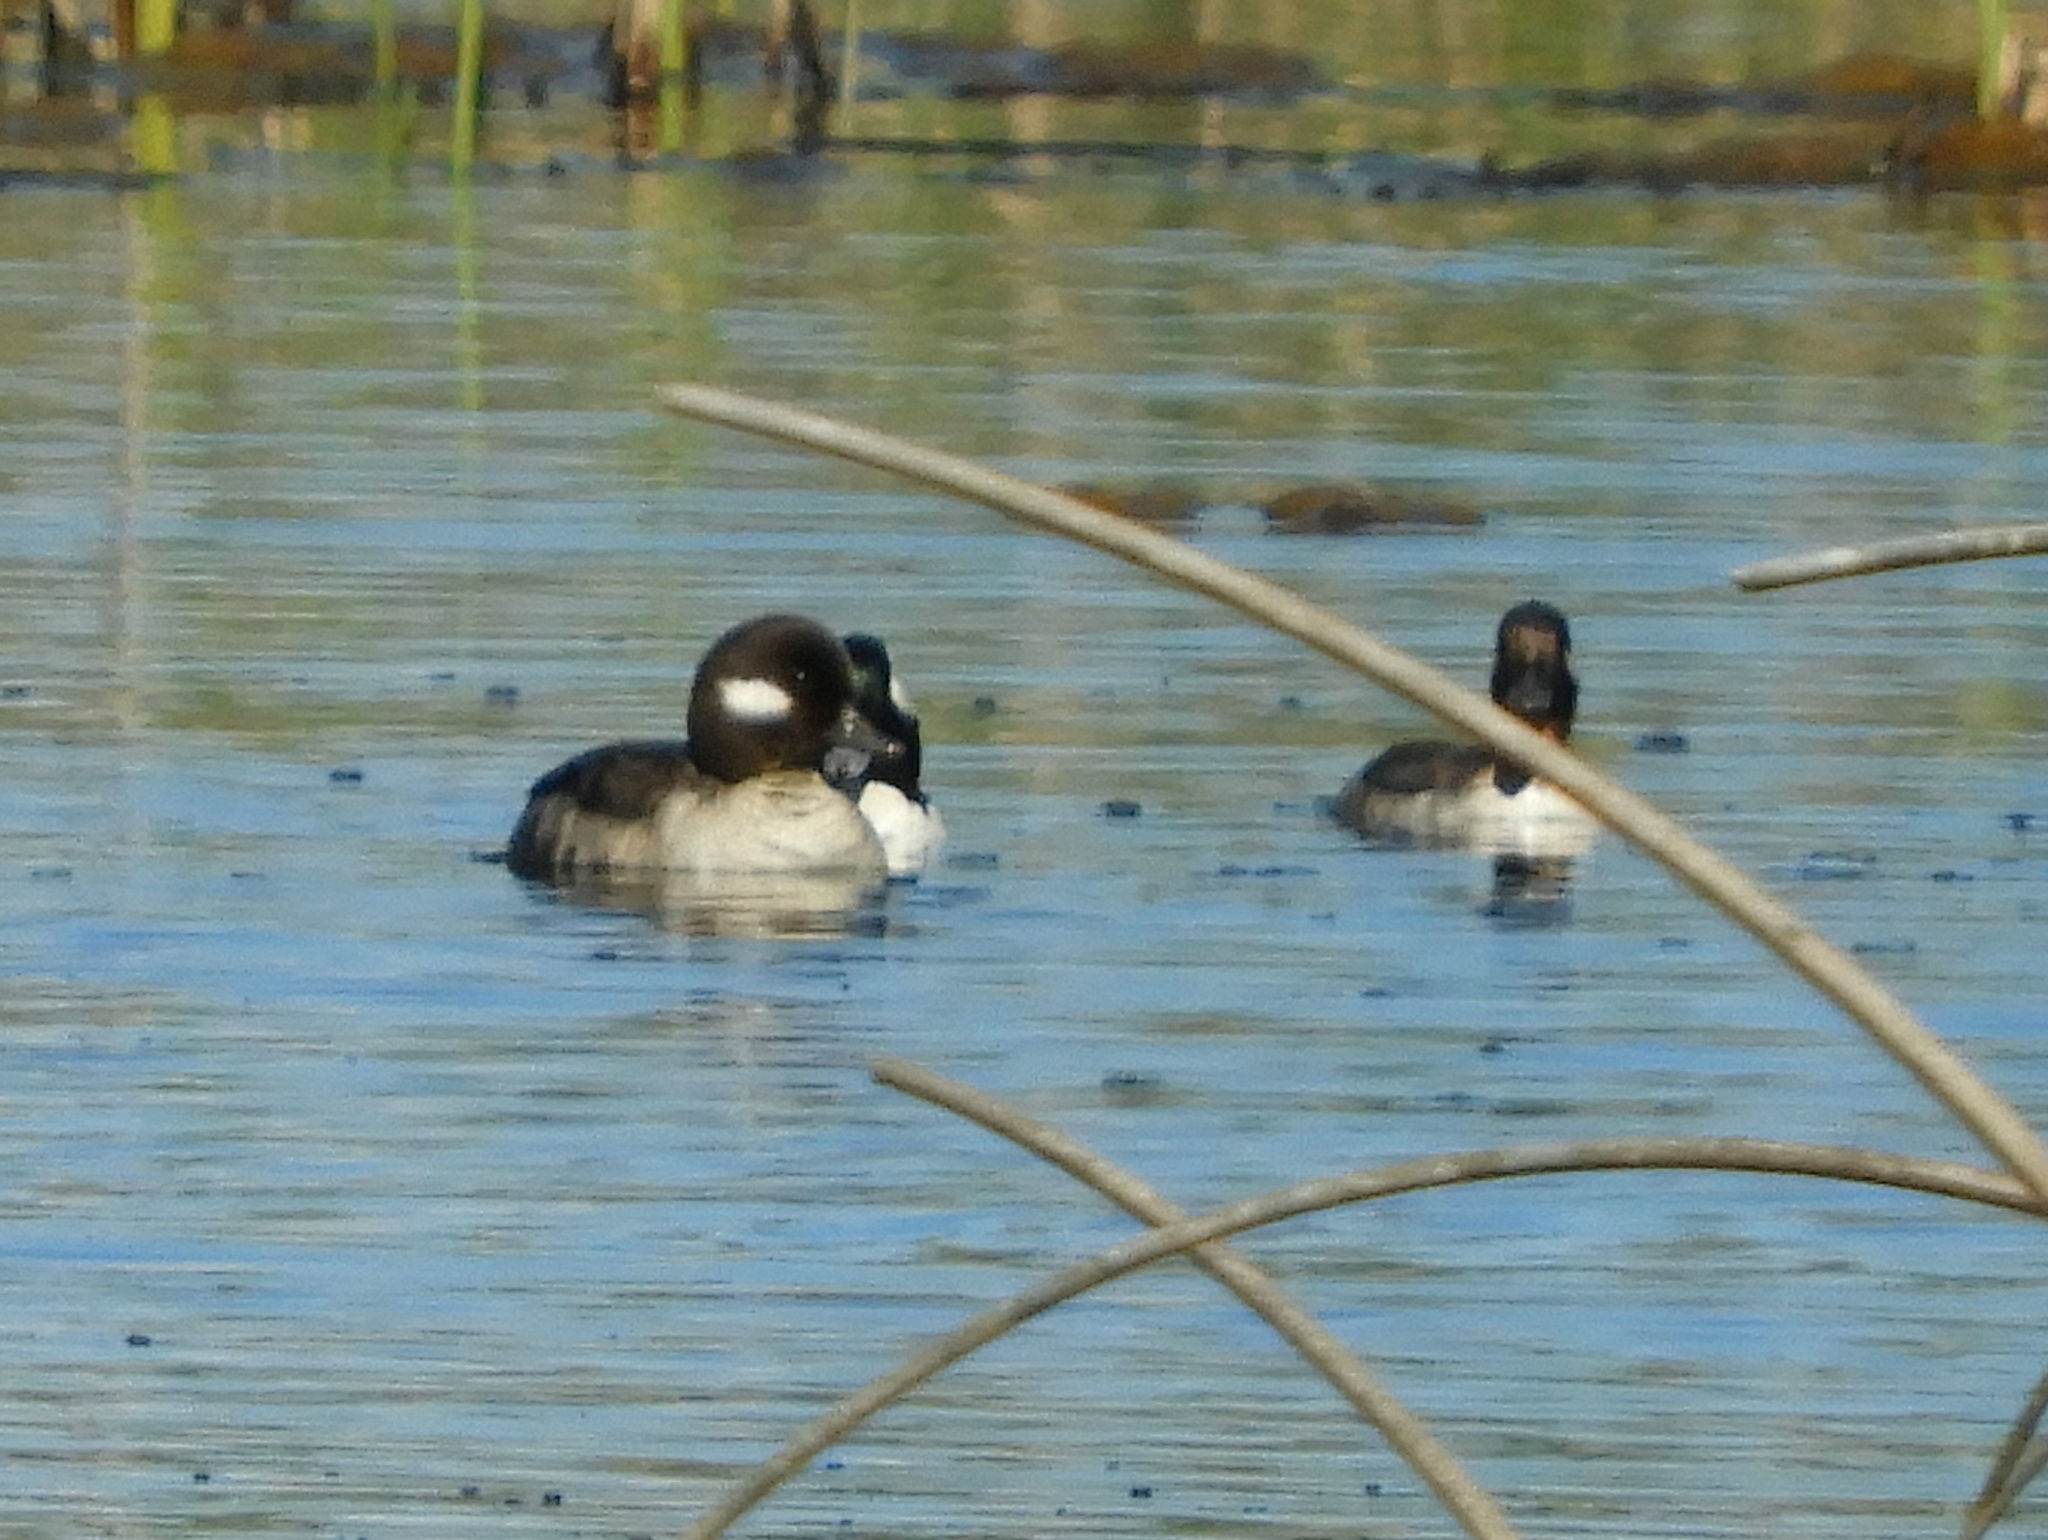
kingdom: Animalia
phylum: Chordata
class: Aves
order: Anseriformes
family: Anatidae
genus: Bucephala
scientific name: Bucephala albeola
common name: Bufflehead
